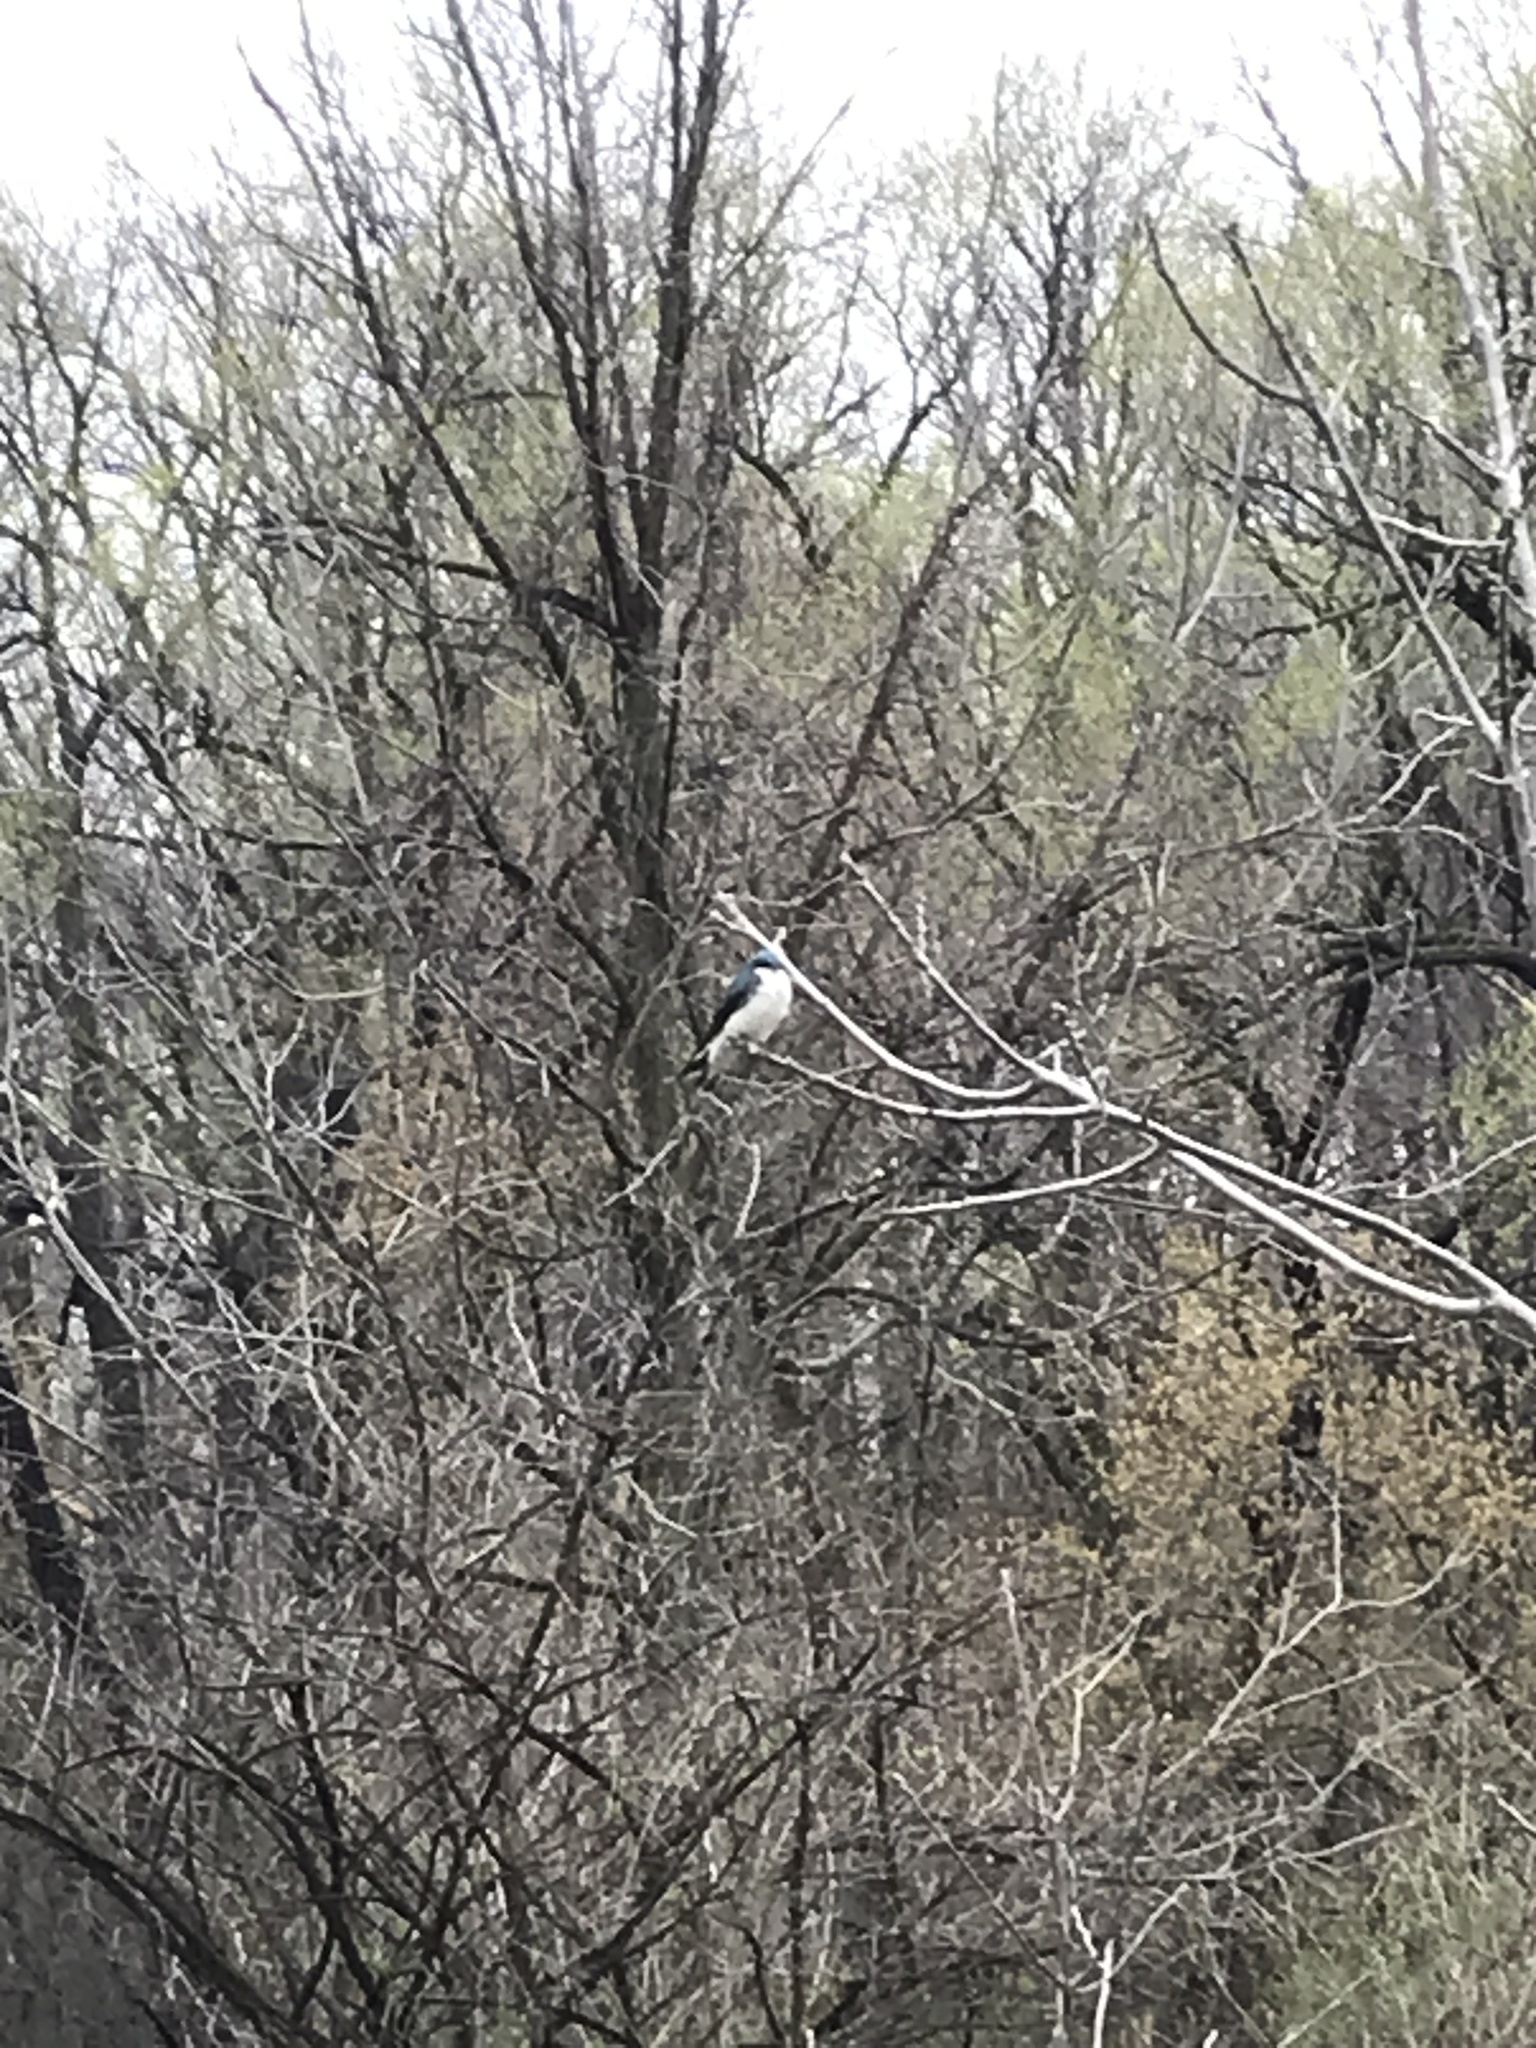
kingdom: Animalia
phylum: Chordata
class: Aves
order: Passeriformes
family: Hirundinidae
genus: Tachycineta
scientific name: Tachycineta bicolor
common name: Tree swallow
